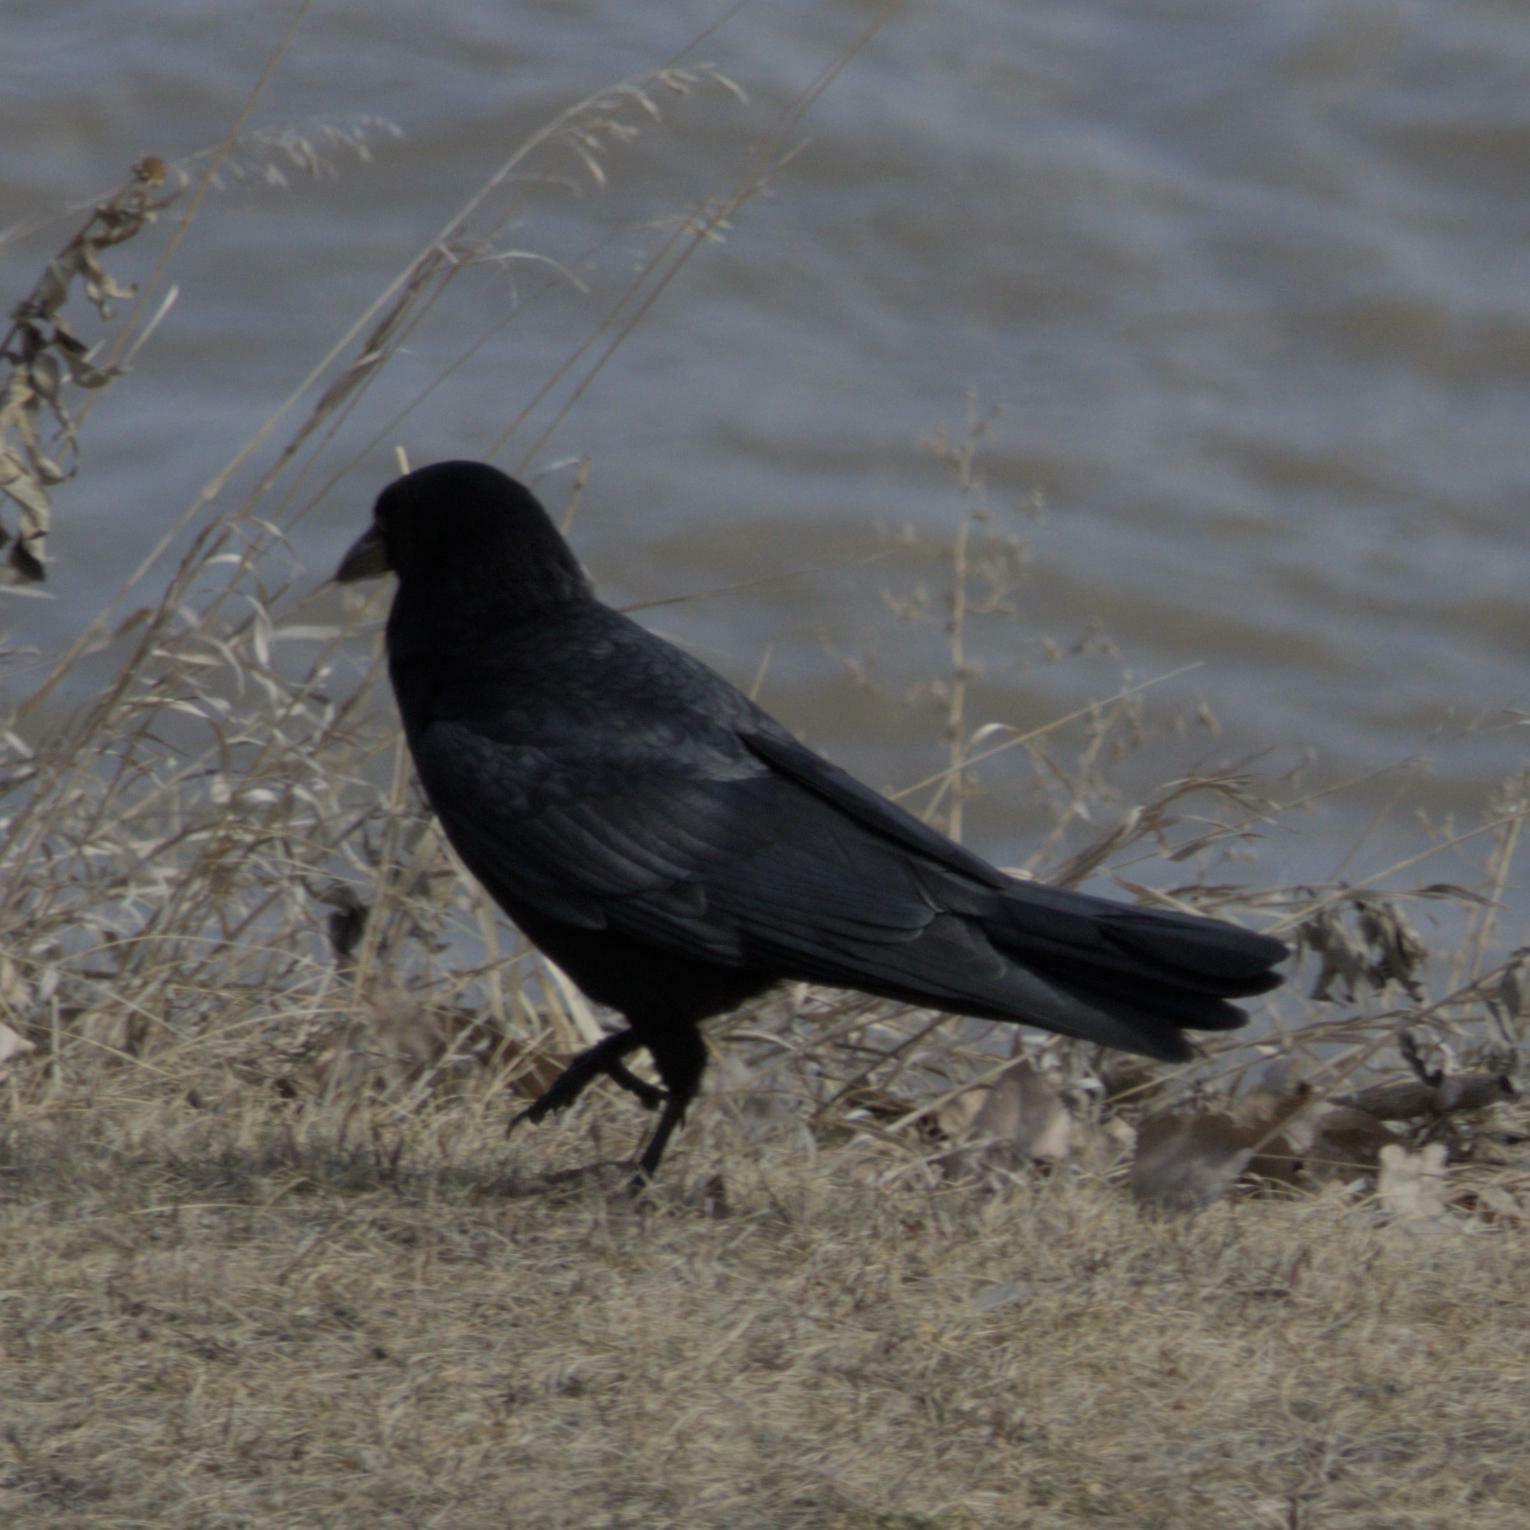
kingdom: Animalia
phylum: Chordata
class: Aves
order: Passeriformes
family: Corvidae
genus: Corvus
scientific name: Corvus brachyrhynchos
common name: American crow
